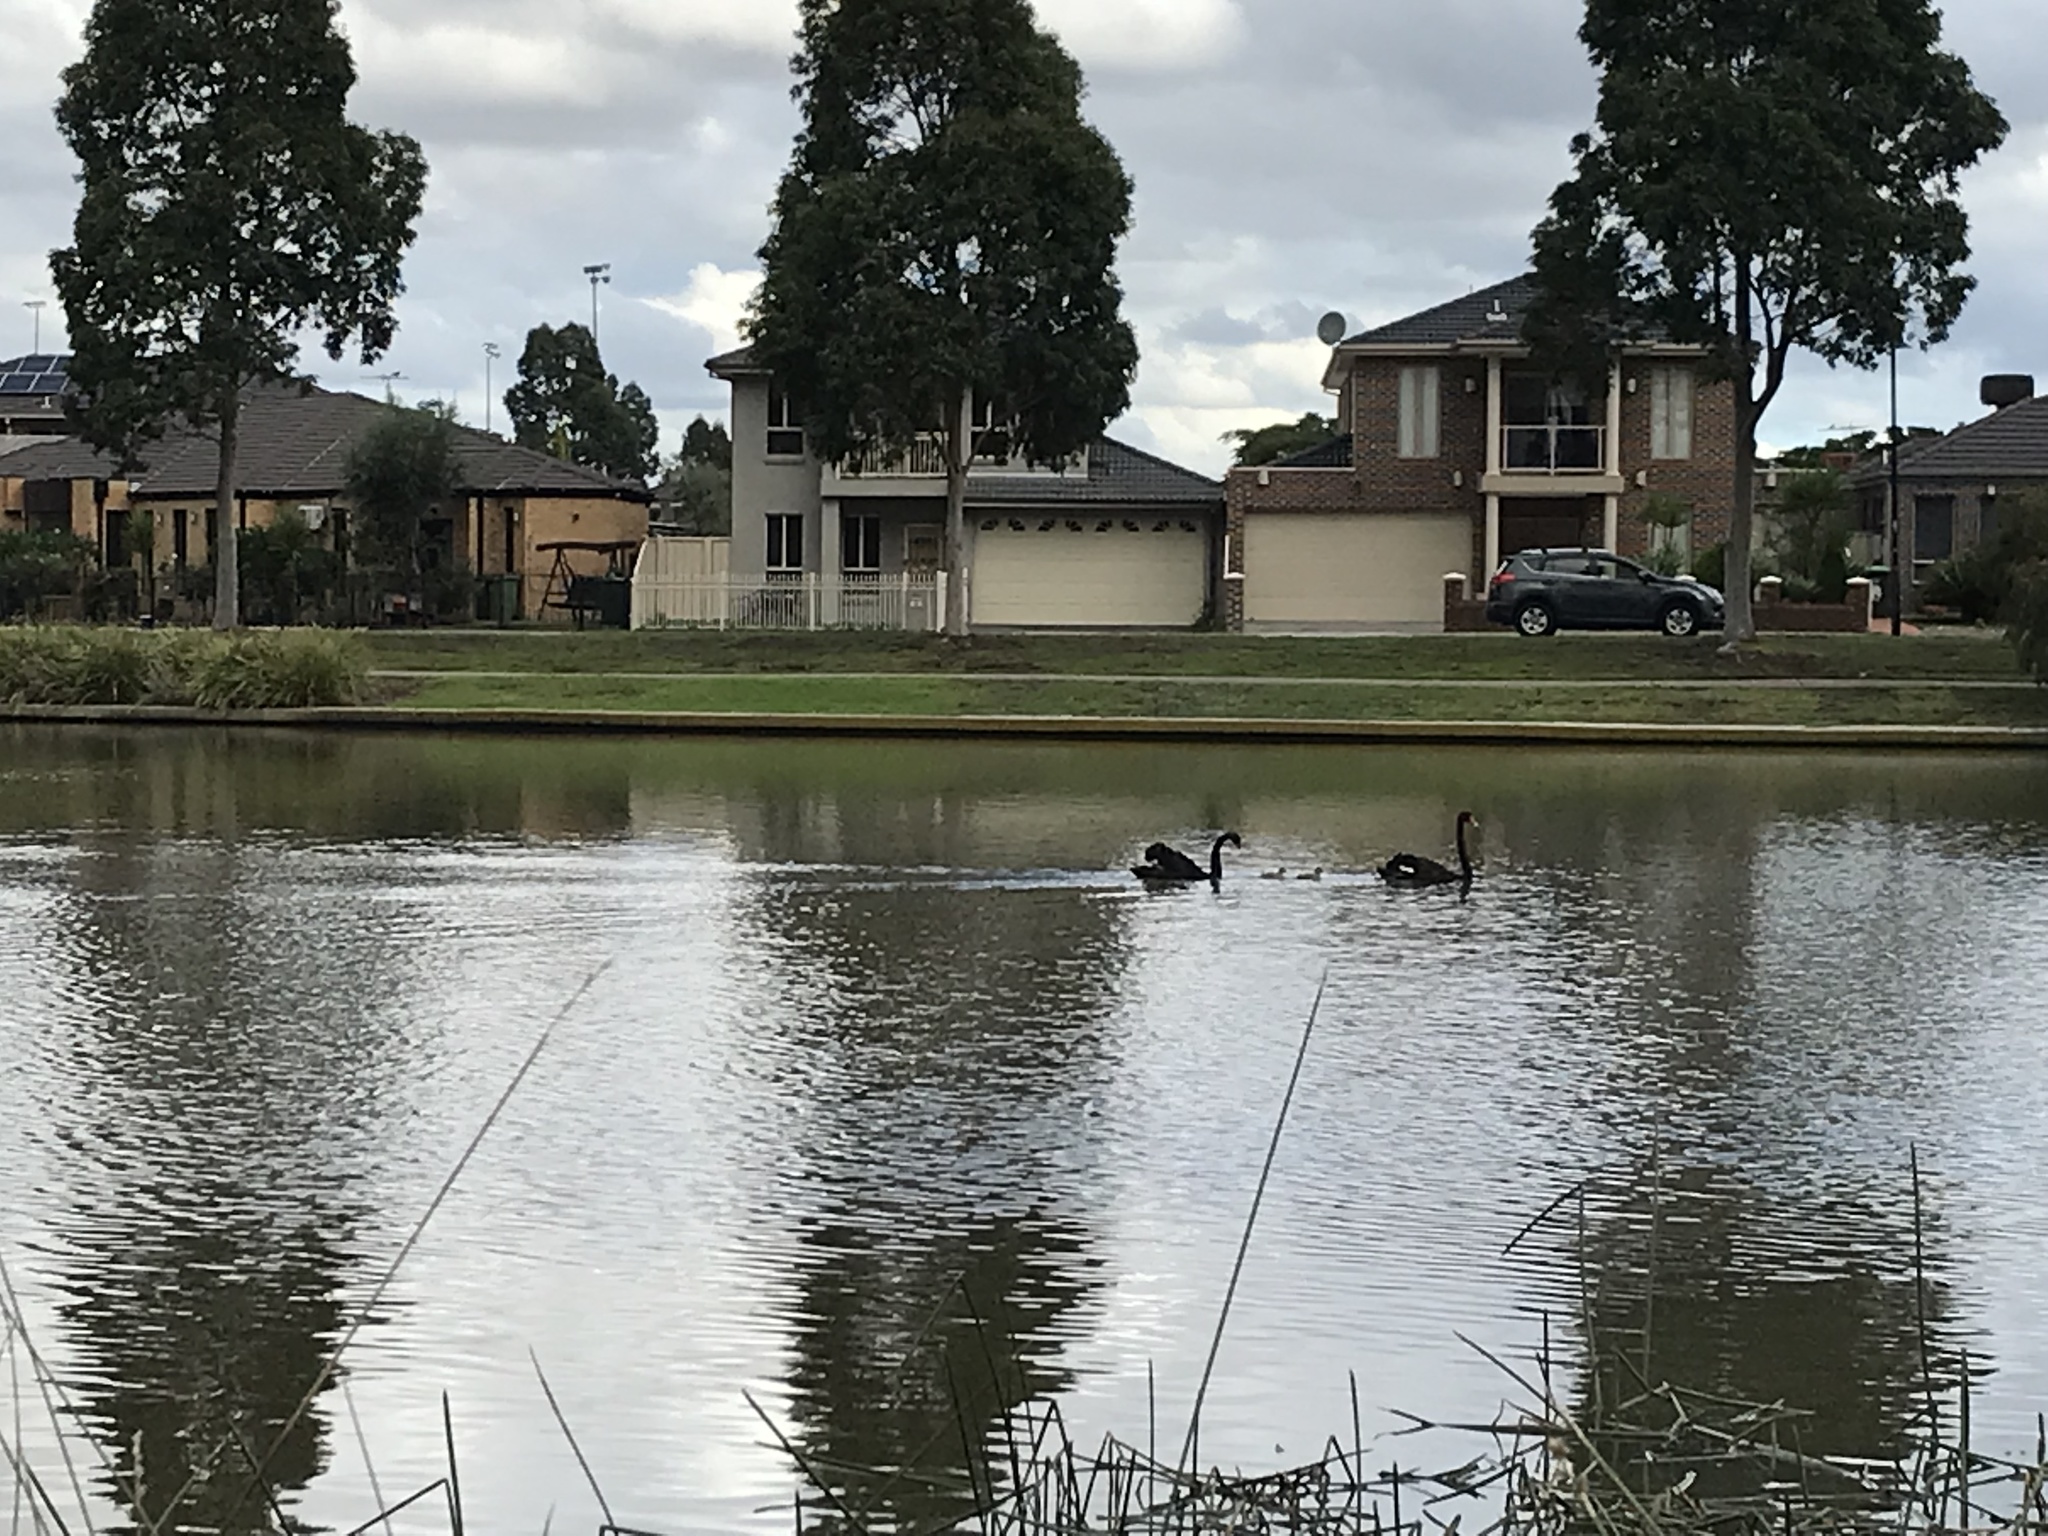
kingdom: Animalia
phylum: Chordata
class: Aves
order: Anseriformes
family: Anatidae
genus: Cygnus
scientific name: Cygnus atratus
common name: Black swan
